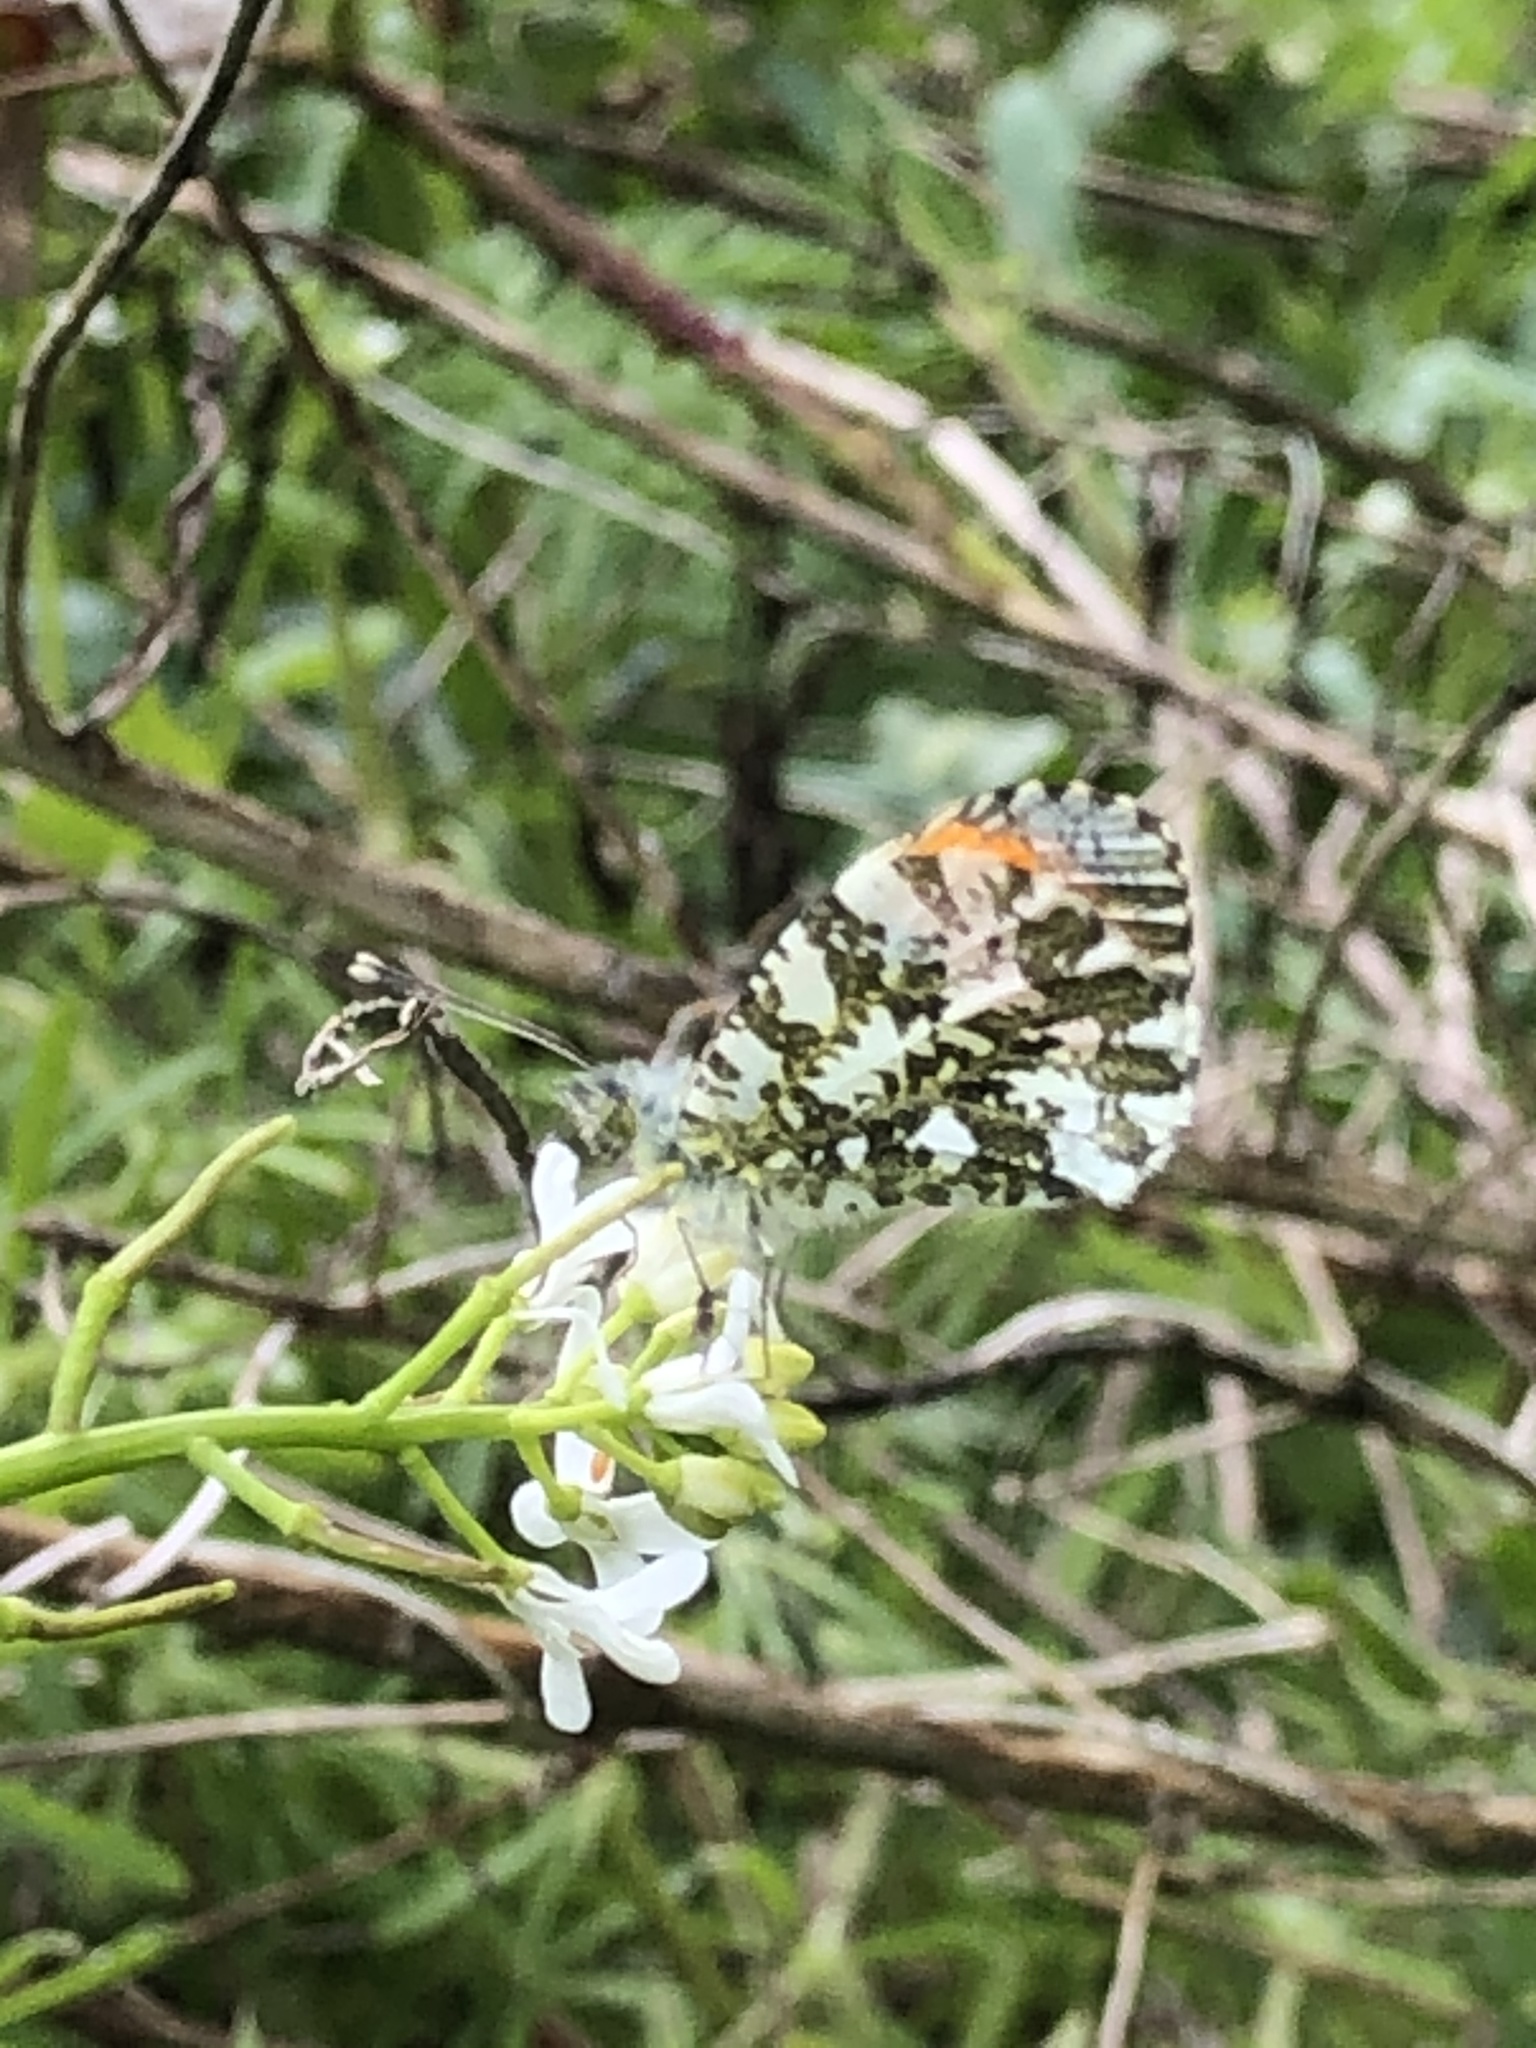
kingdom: Animalia
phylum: Arthropoda
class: Insecta
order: Lepidoptera
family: Pieridae
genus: Anthocharis
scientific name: Anthocharis cardamines
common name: Orange-tip
